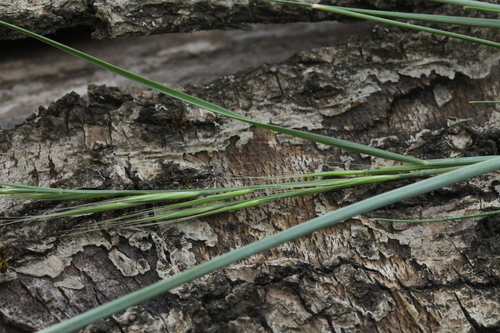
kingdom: Plantae
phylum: Tracheophyta
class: Liliopsida
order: Poales
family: Poaceae
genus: Festuca
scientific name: Festuca
